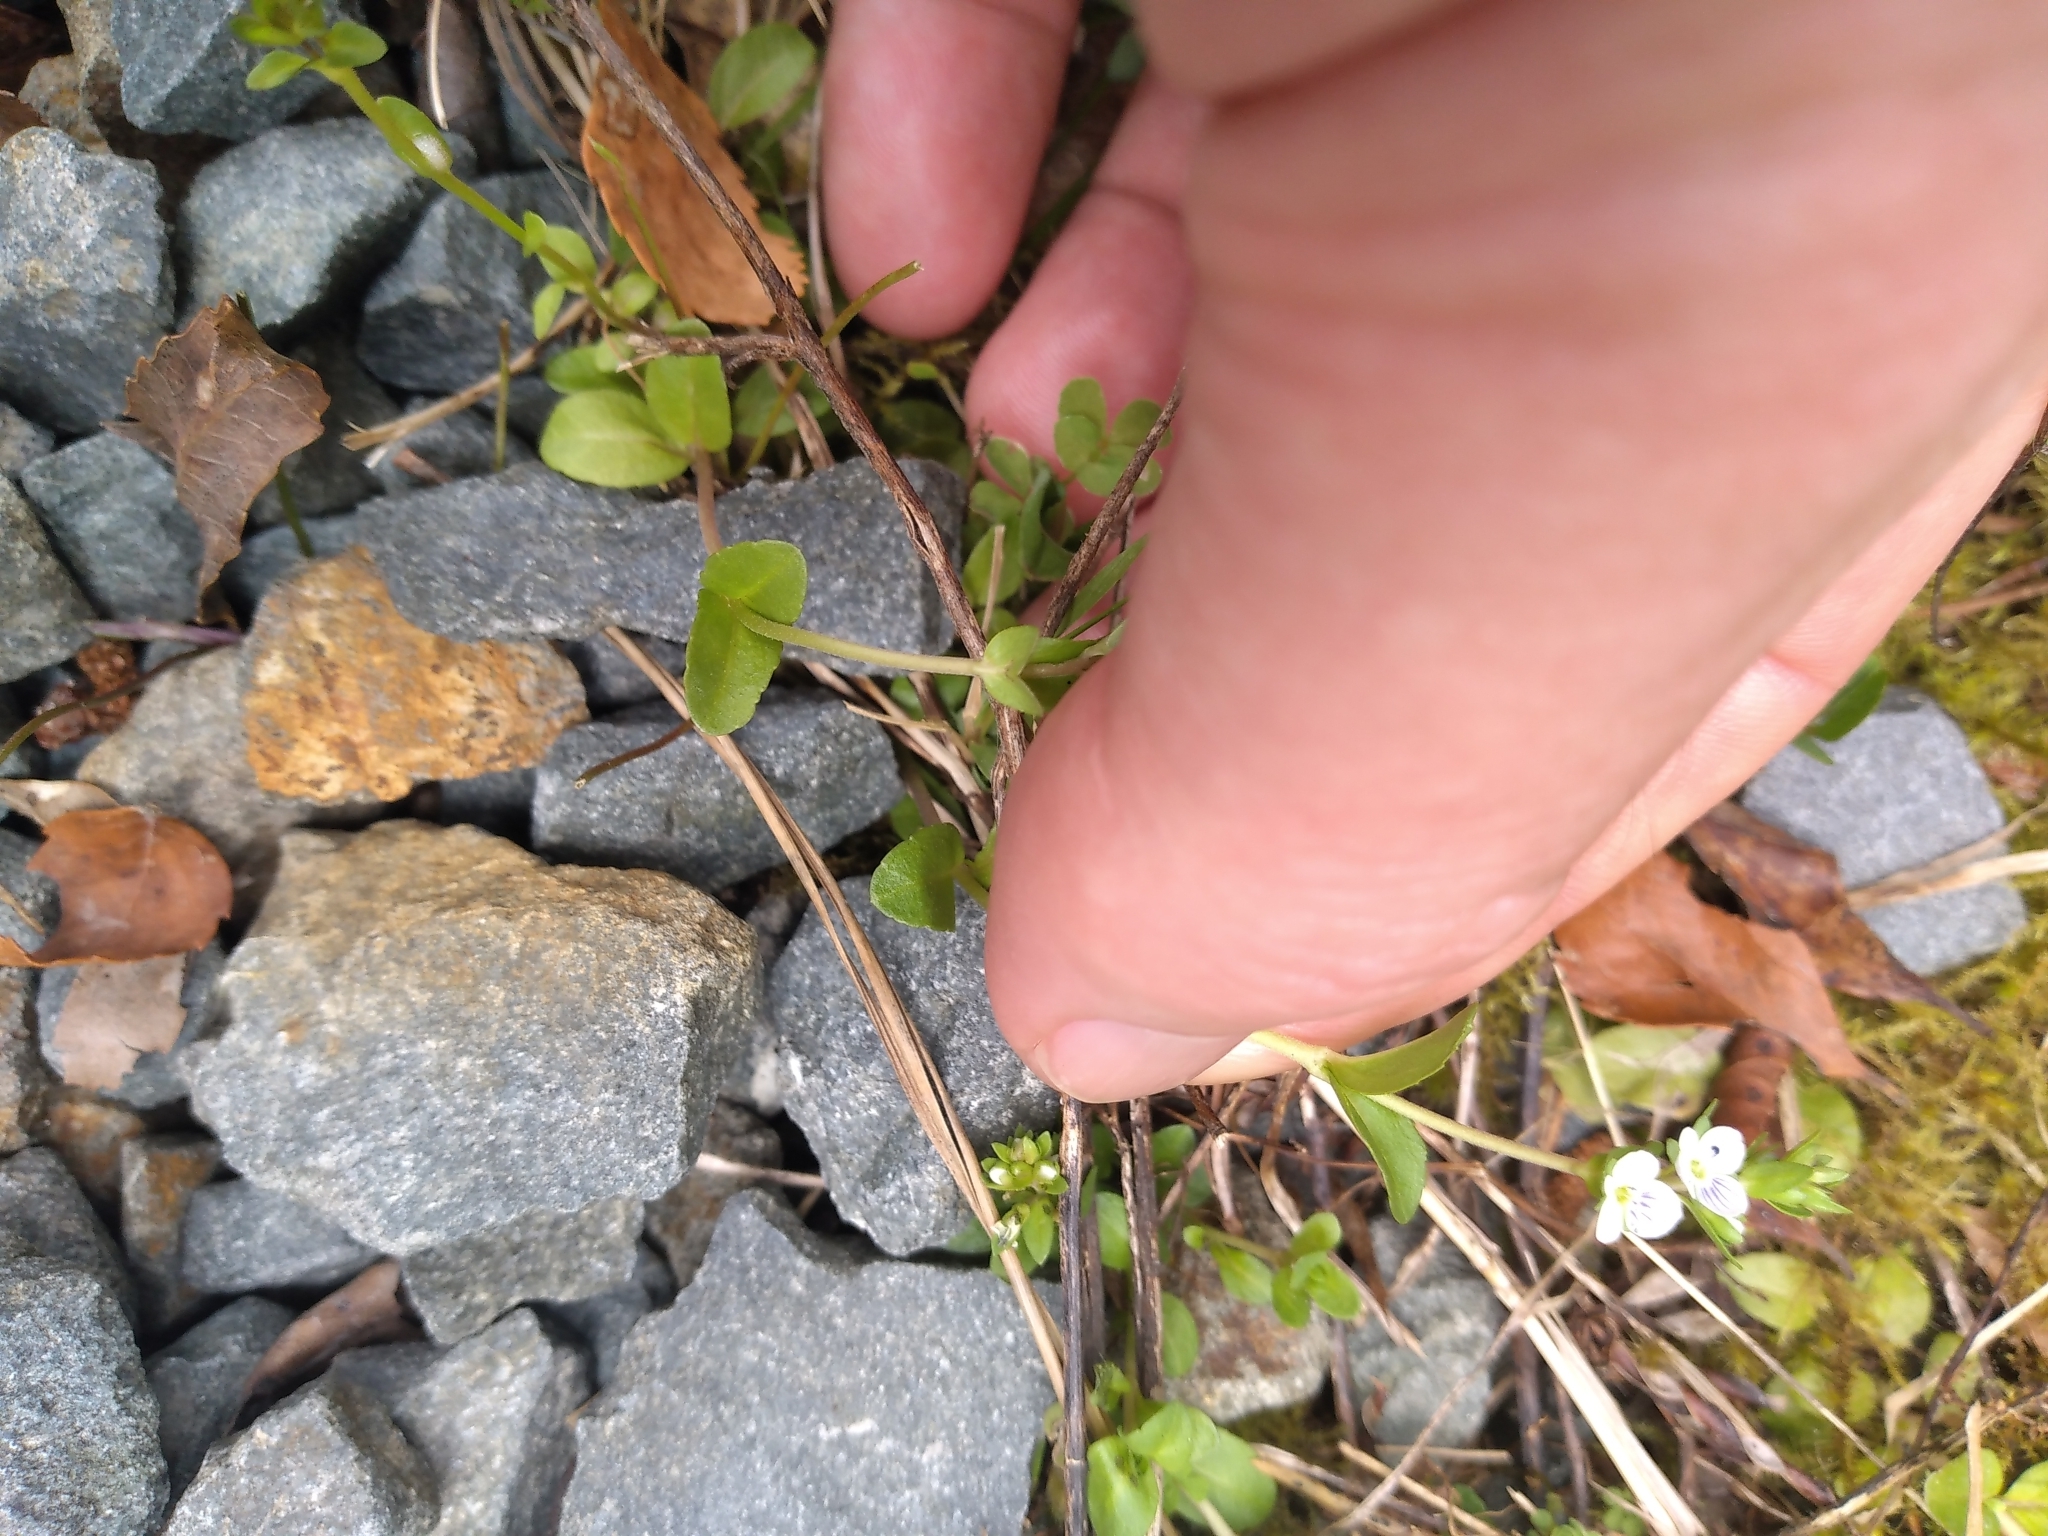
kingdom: Plantae
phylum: Tracheophyta
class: Magnoliopsida
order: Lamiales
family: Plantaginaceae
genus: Veronica
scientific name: Veronica serpyllifolia
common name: Thyme-leaved speedwell
